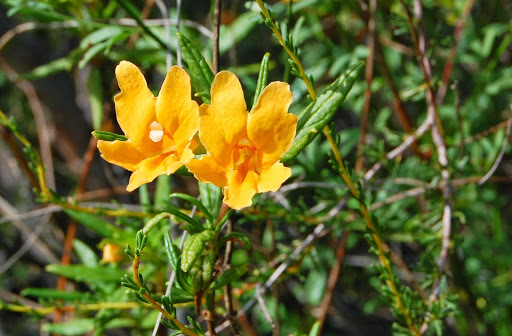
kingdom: Plantae
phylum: Tracheophyta
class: Magnoliopsida
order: Lamiales
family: Phrymaceae
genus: Diplacus
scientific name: Diplacus aurantiacus
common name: Bush monkey-flower
